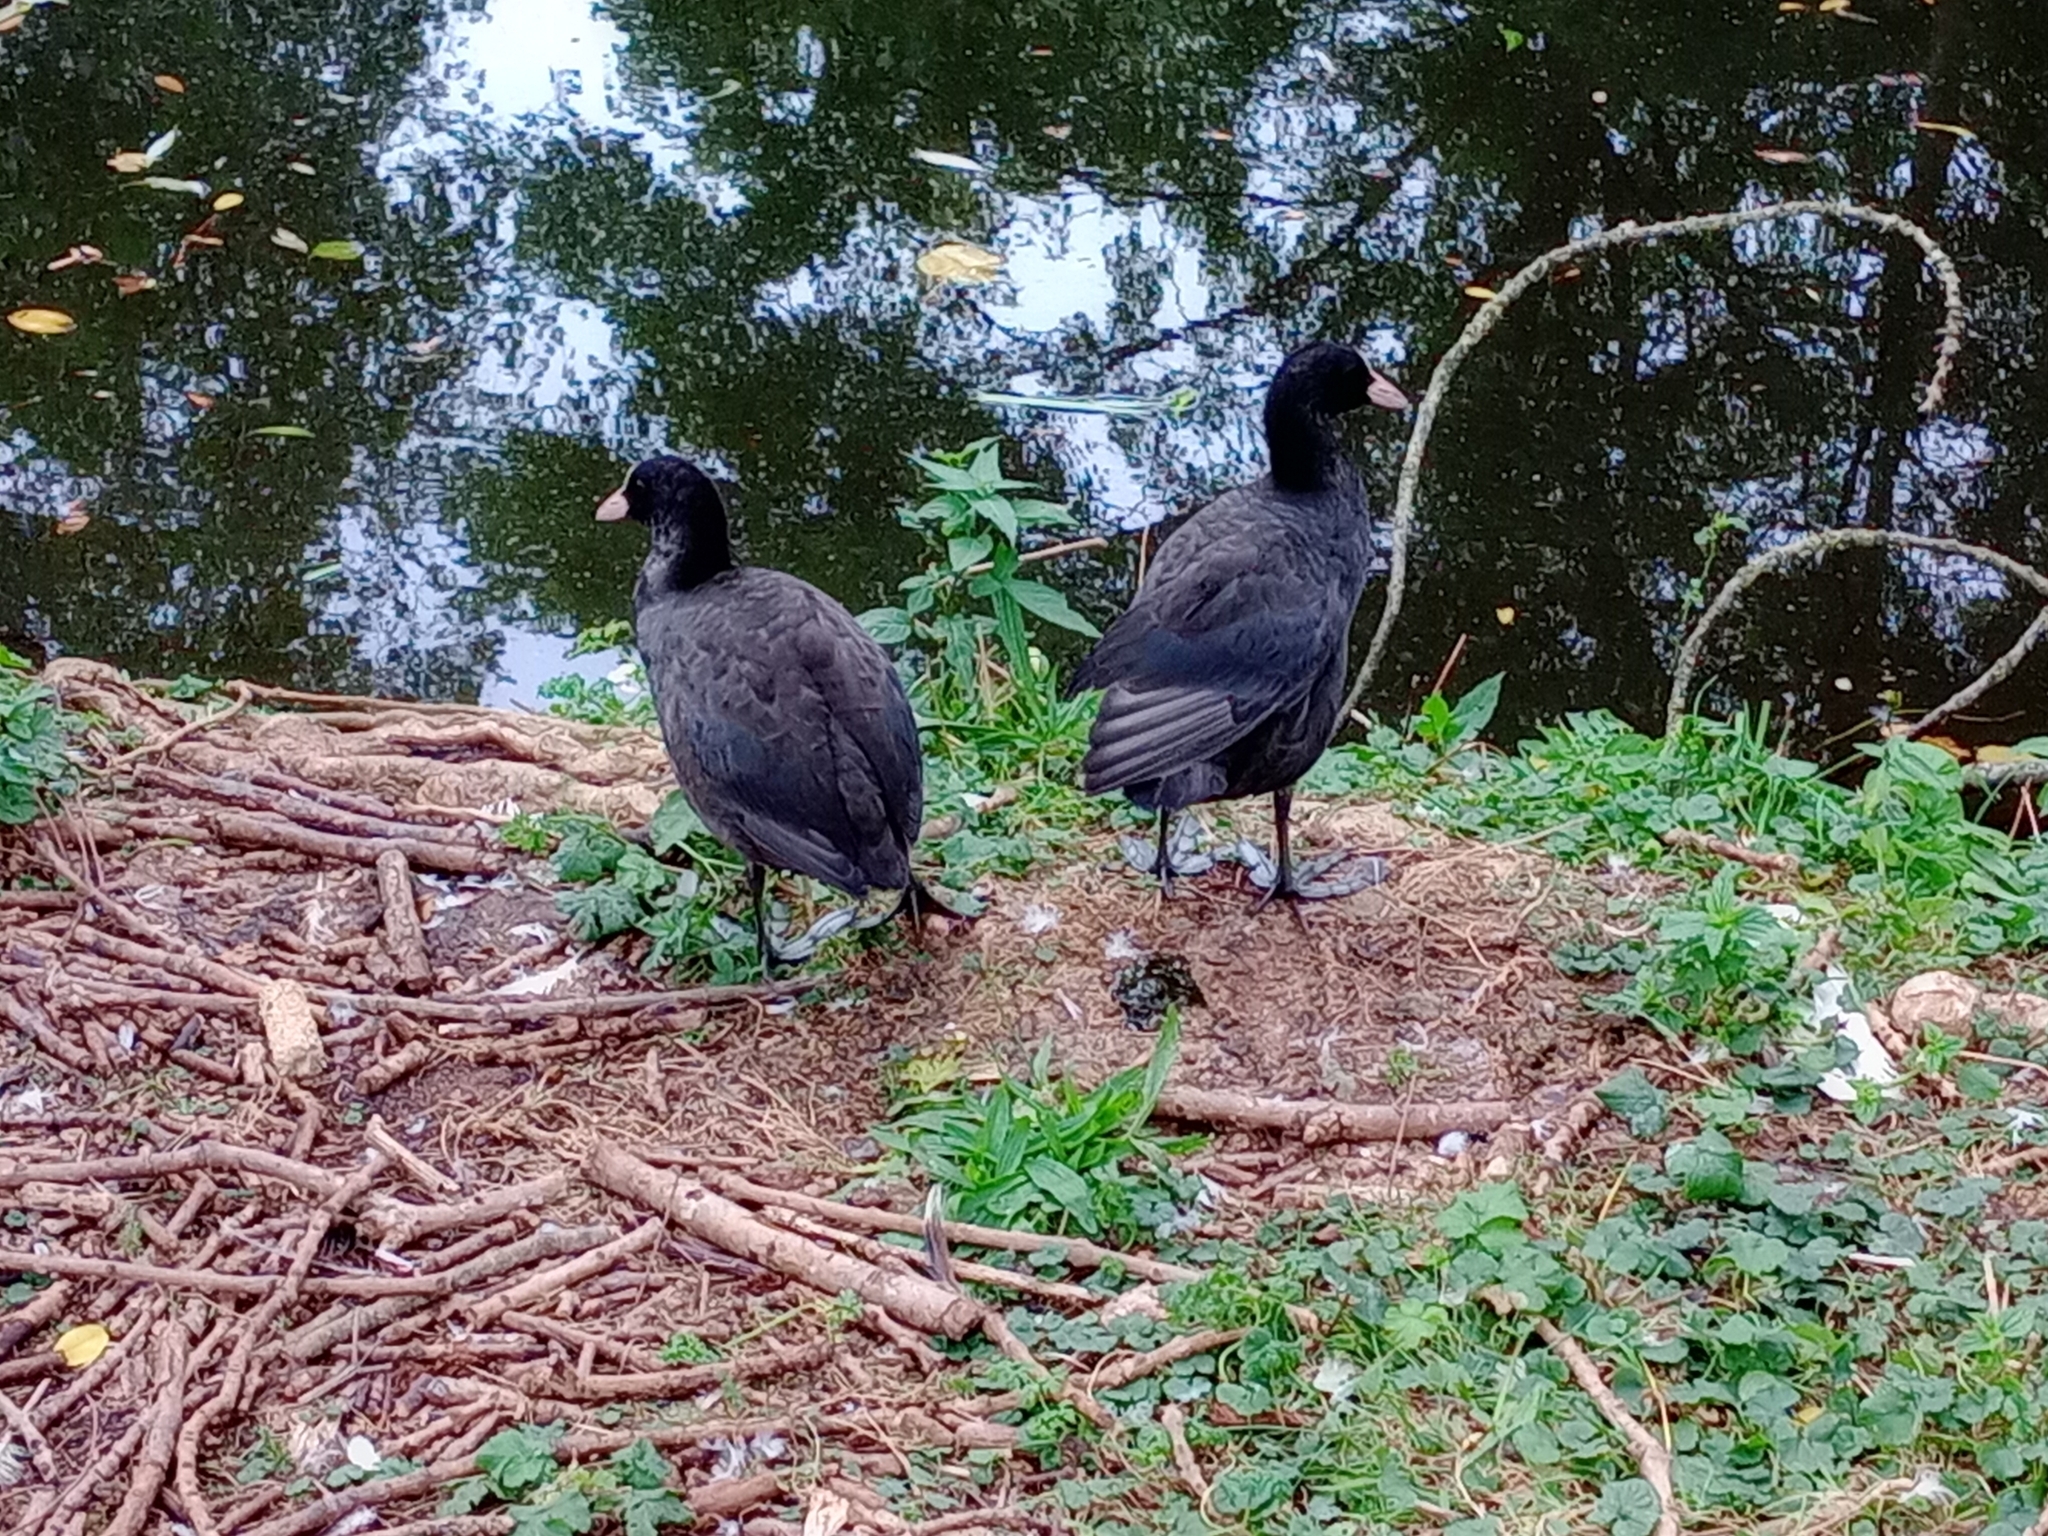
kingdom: Animalia
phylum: Chordata
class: Aves
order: Gruiformes
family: Rallidae
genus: Fulica
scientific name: Fulica atra
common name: Eurasian coot
